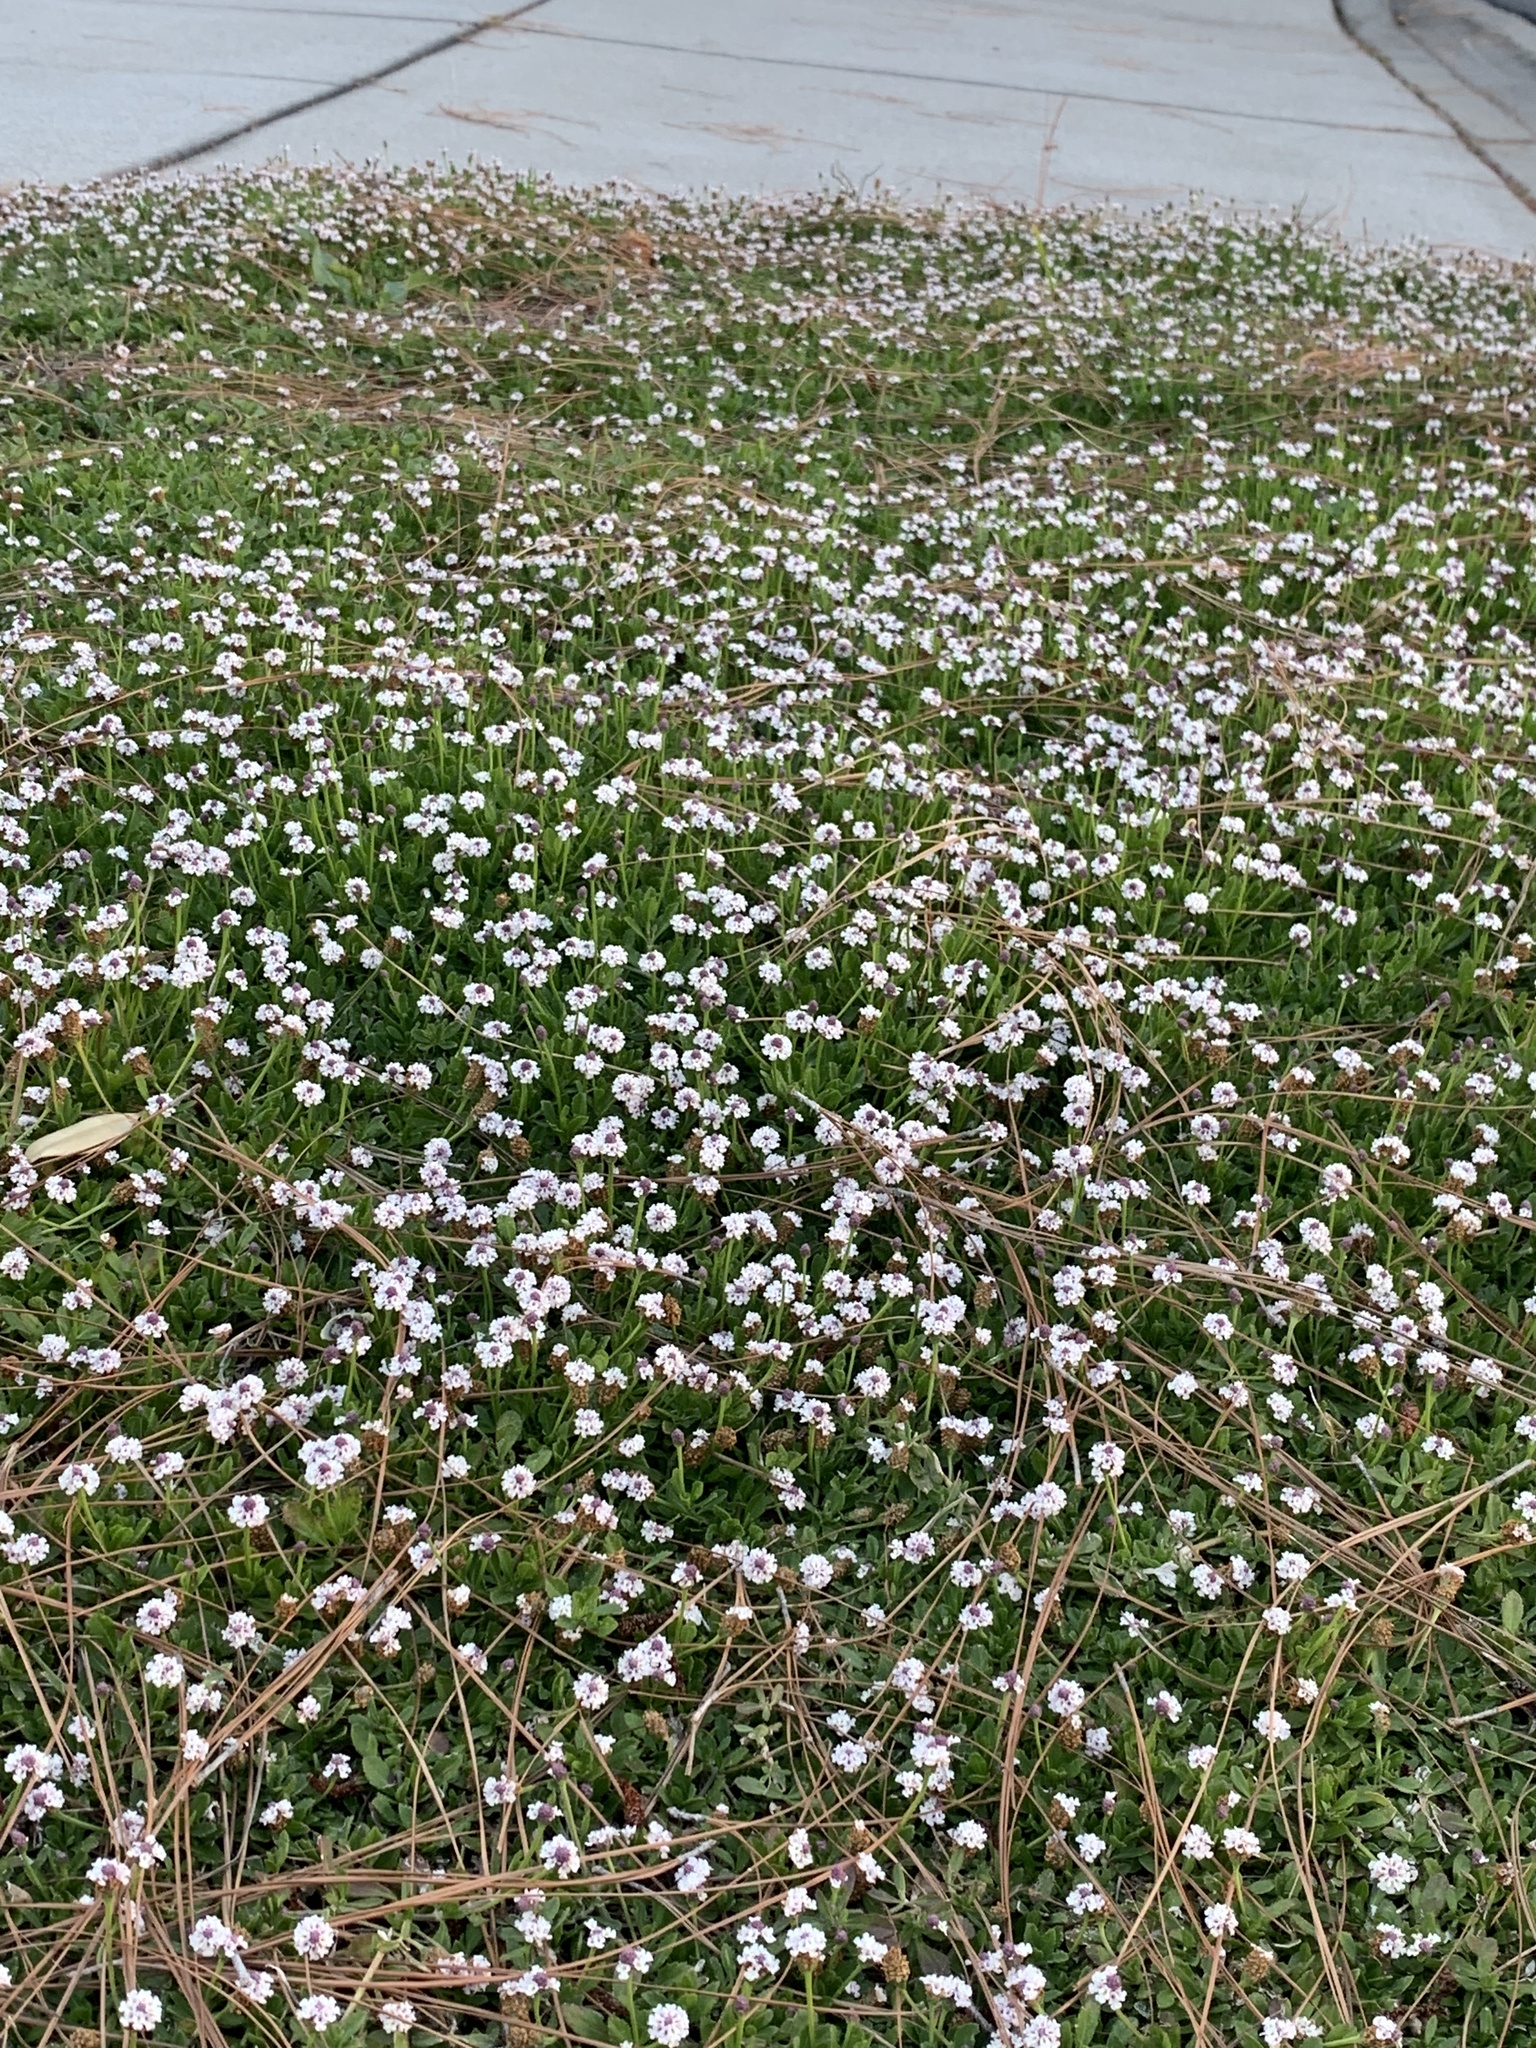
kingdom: Plantae
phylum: Tracheophyta
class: Magnoliopsida
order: Lamiales
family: Verbenaceae
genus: Phyla
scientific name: Phyla nodiflora
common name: Frogfruit
